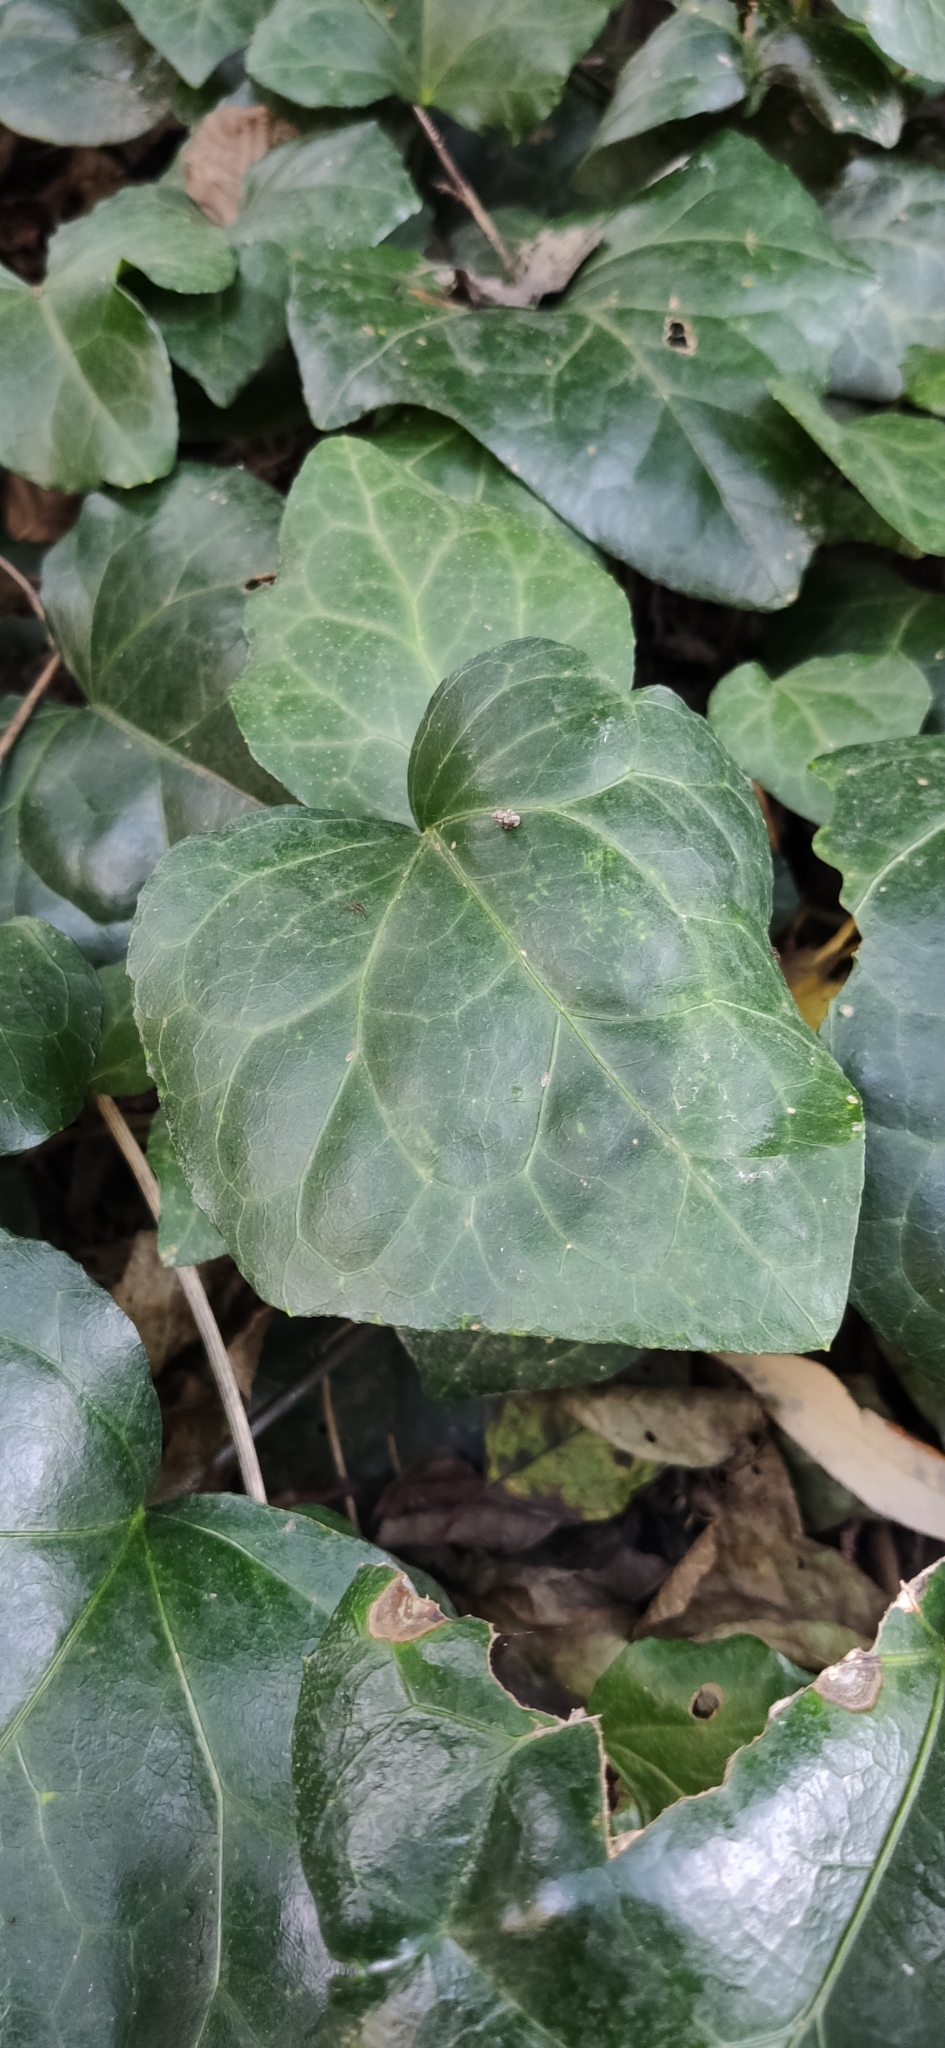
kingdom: Plantae
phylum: Tracheophyta
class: Magnoliopsida
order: Apiales
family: Araliaceae
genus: Hedera
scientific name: Hedera colchica
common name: Persian ivy
